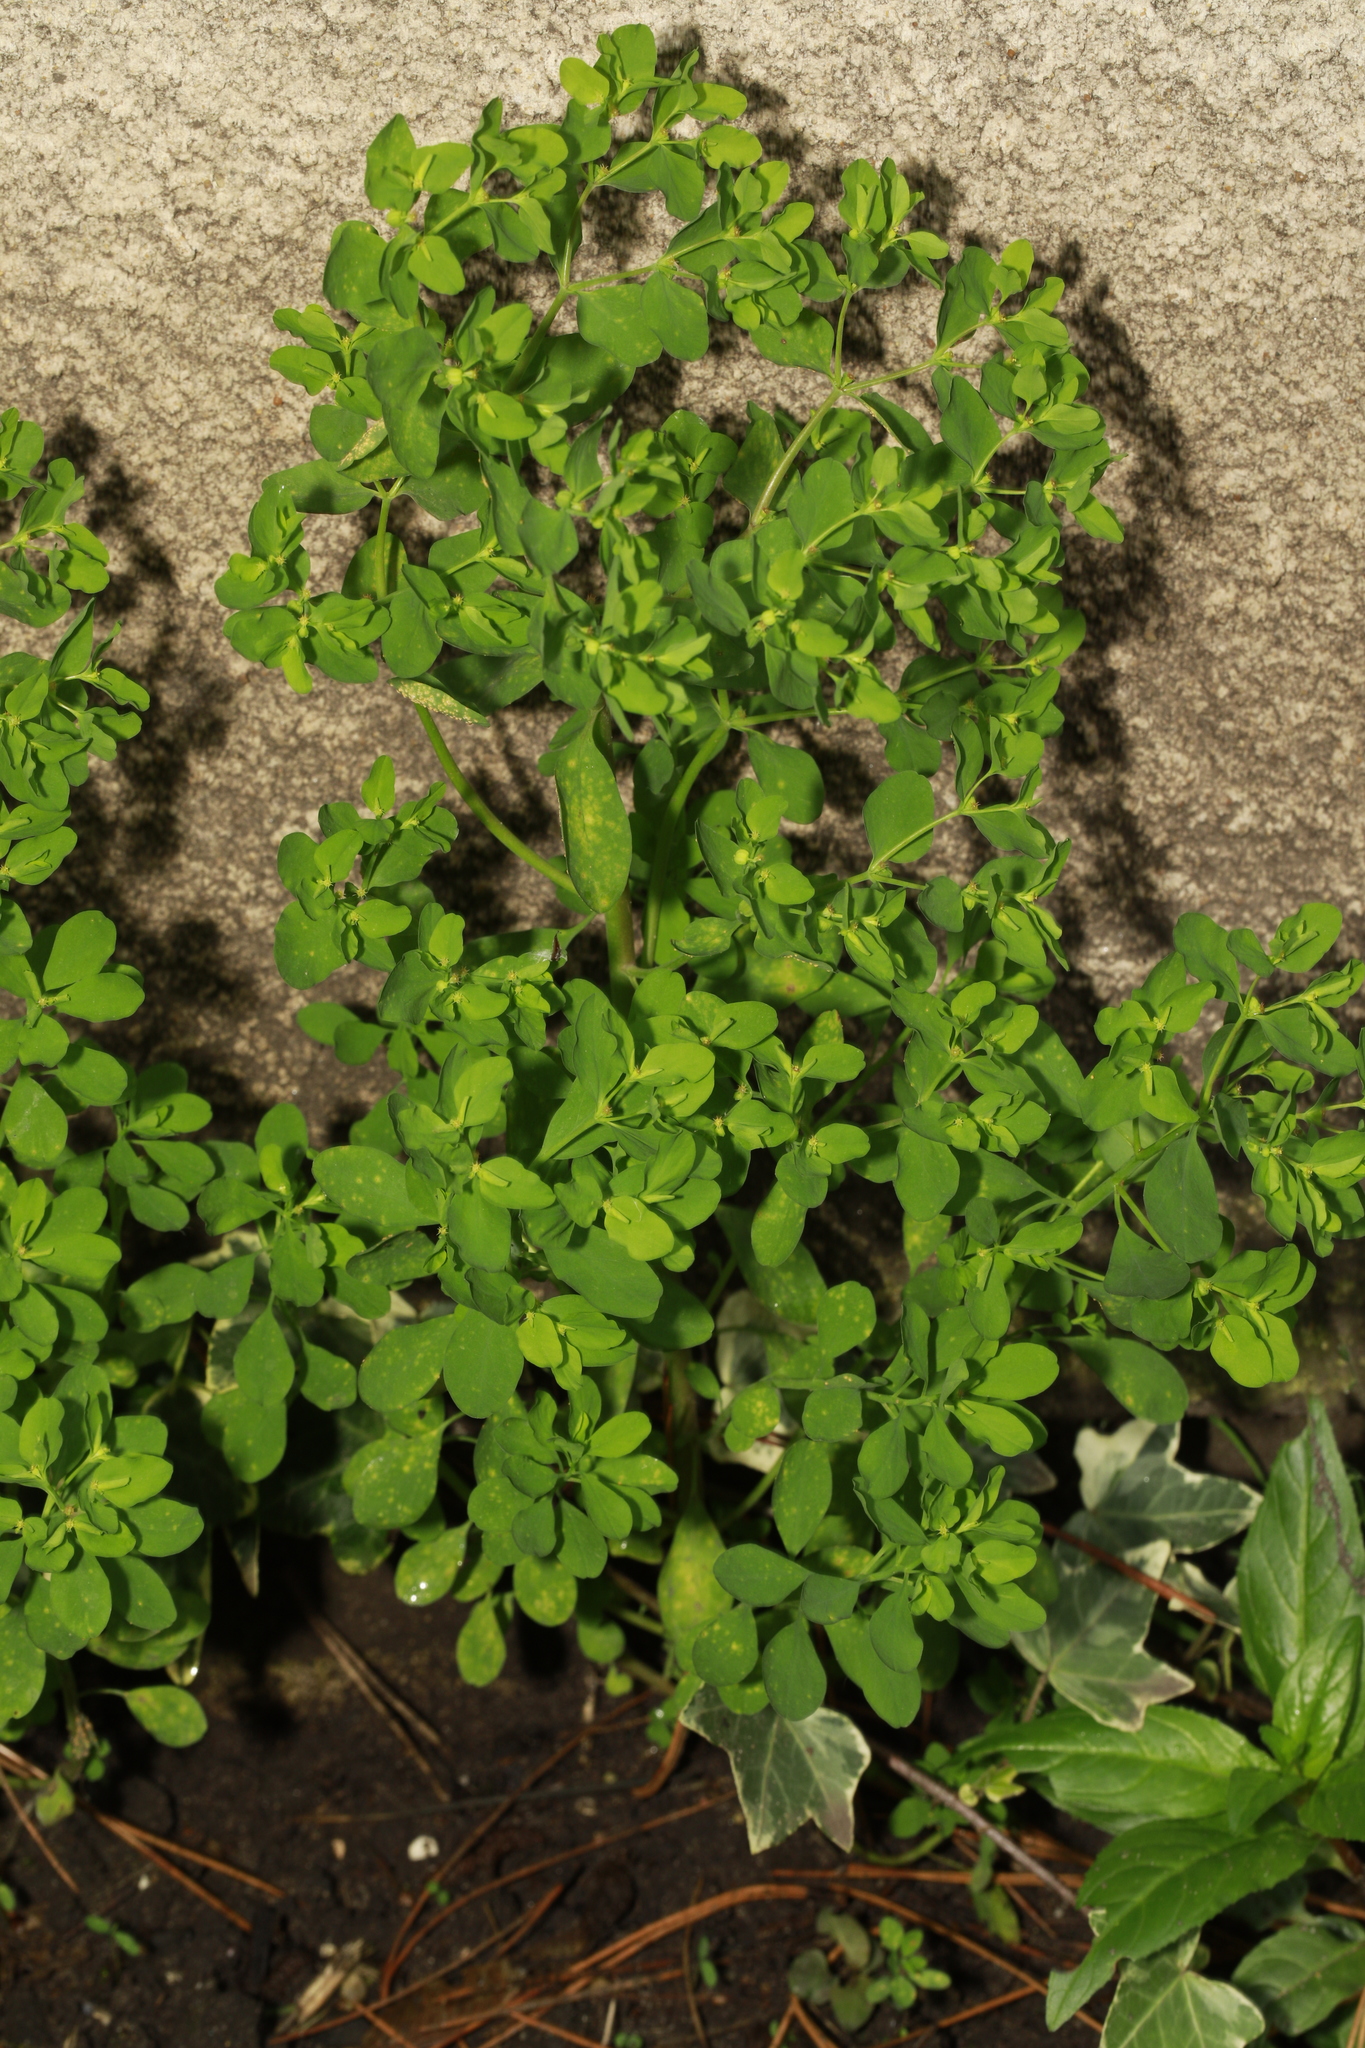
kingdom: Plantae
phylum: Tracheophyta
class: Magnoliopsida
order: Malpighiales
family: Euphorbiaceae
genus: Euphorbia
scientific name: Euphorbia peplus
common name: Petty spurge
